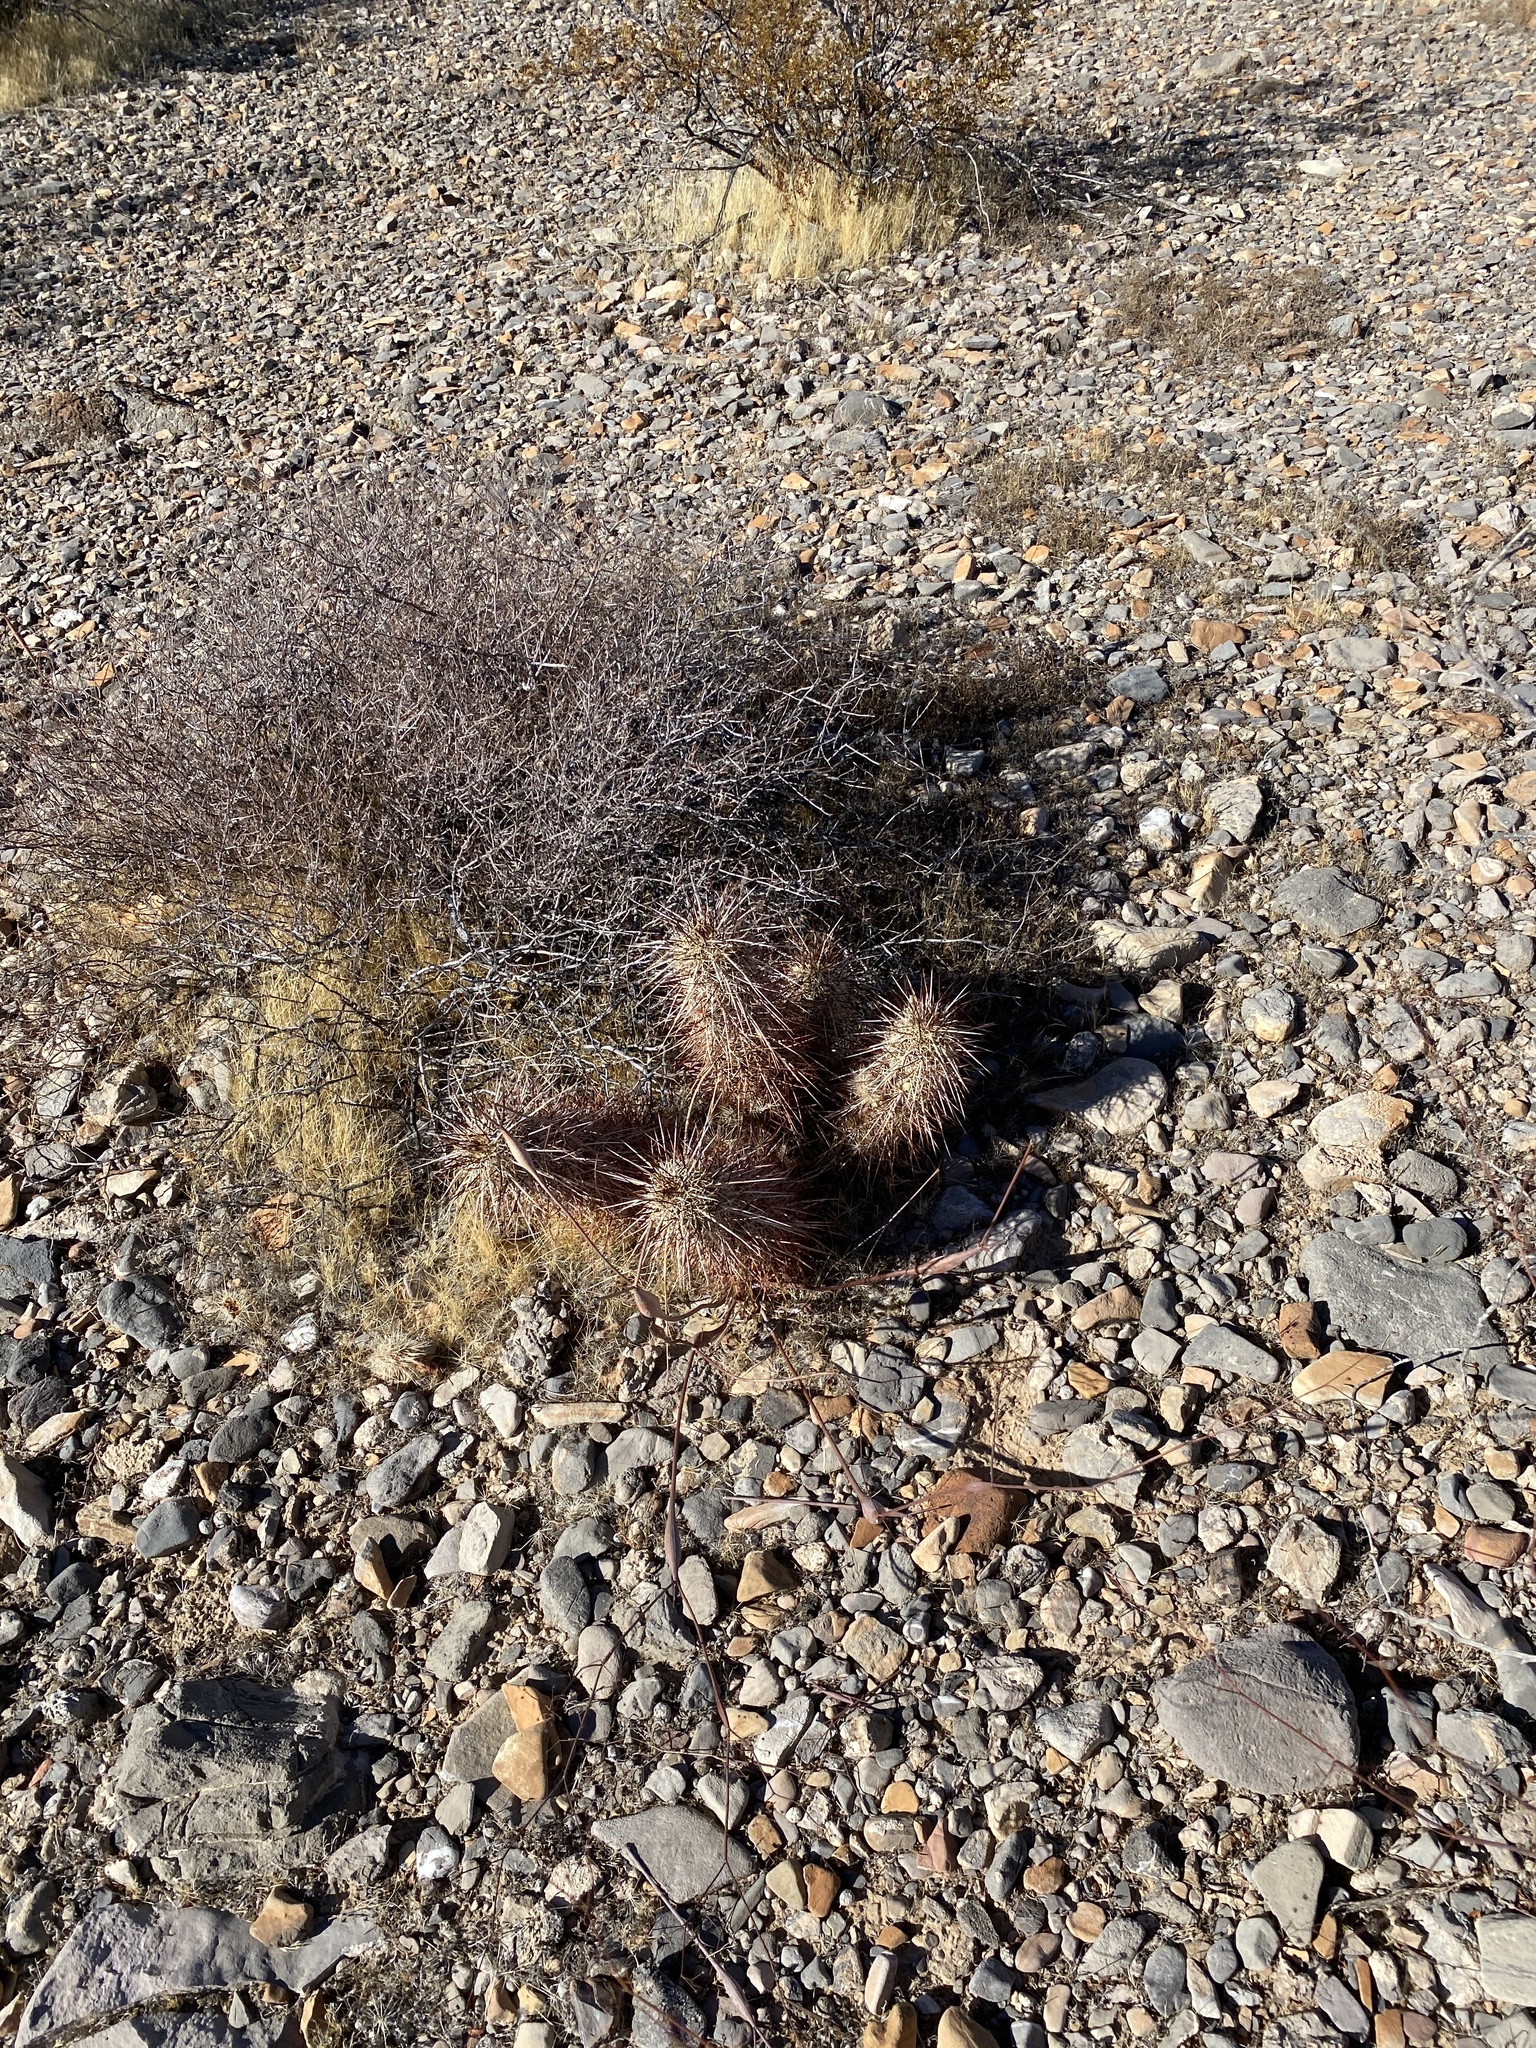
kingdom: Plantae
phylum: Tracheophyta
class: Magnoliopsida
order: Caryophyllales
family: Cactaceae
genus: Echinocereus
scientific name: Echinocereus engelmannii
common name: Engelmann's hedgehog cactus
